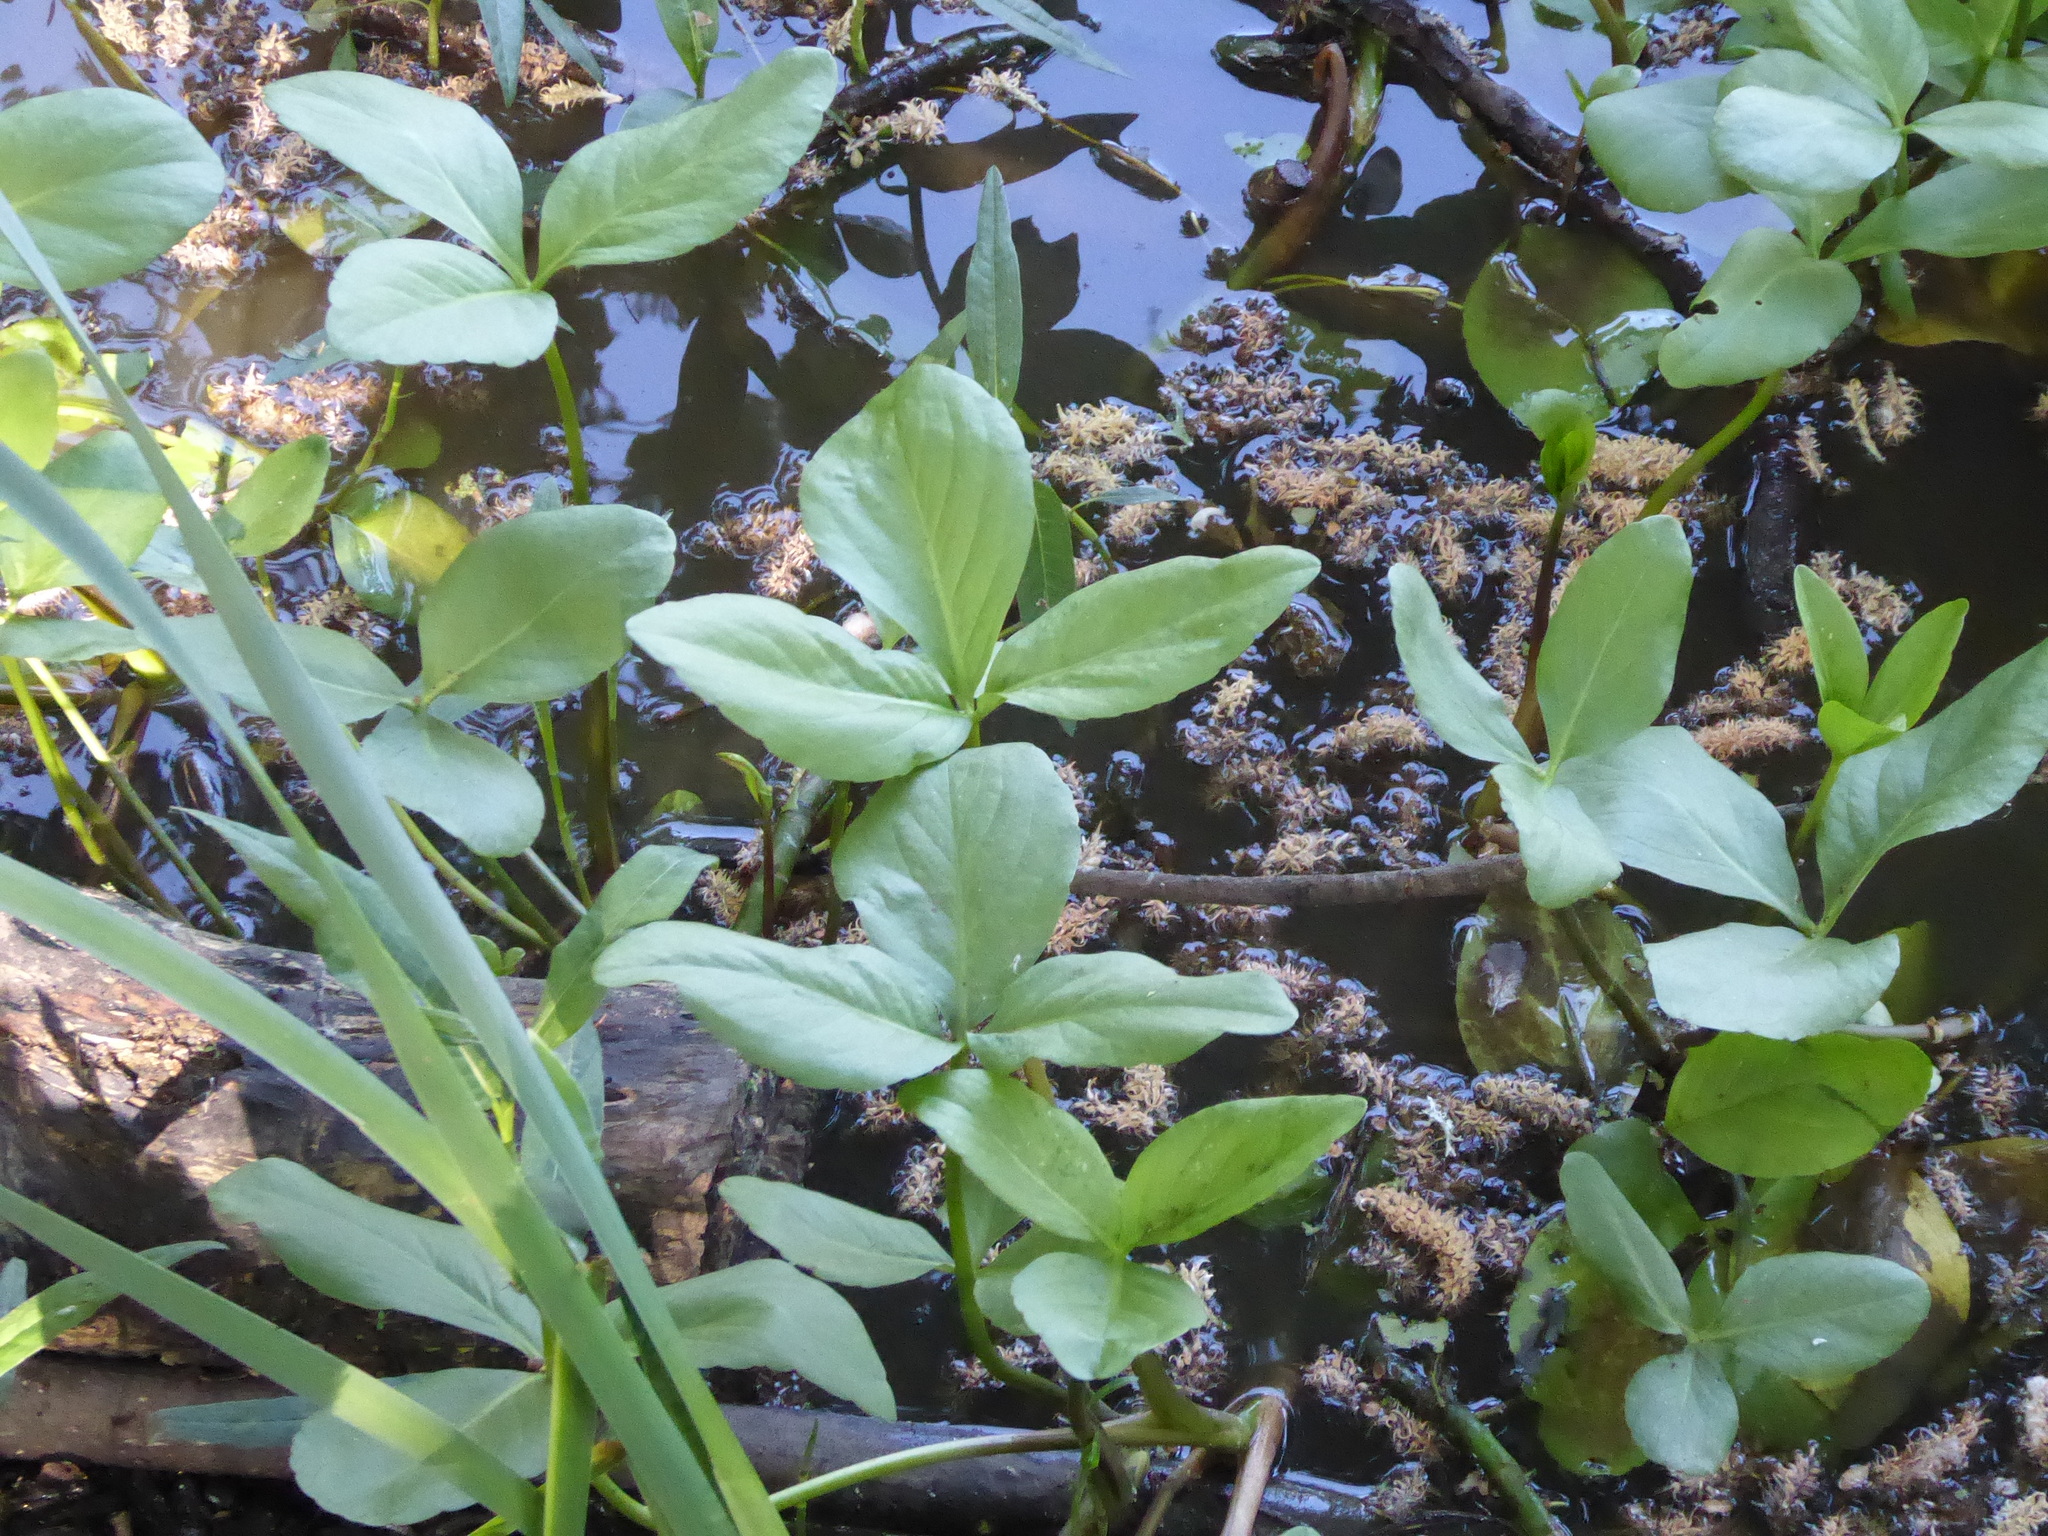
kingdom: Plantae
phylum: Tracheophyta
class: Magnoliopsida
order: Asterales
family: Menyanthaceae
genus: Menyanthes
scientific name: Menyanthes trifoliata
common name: Bogbean
